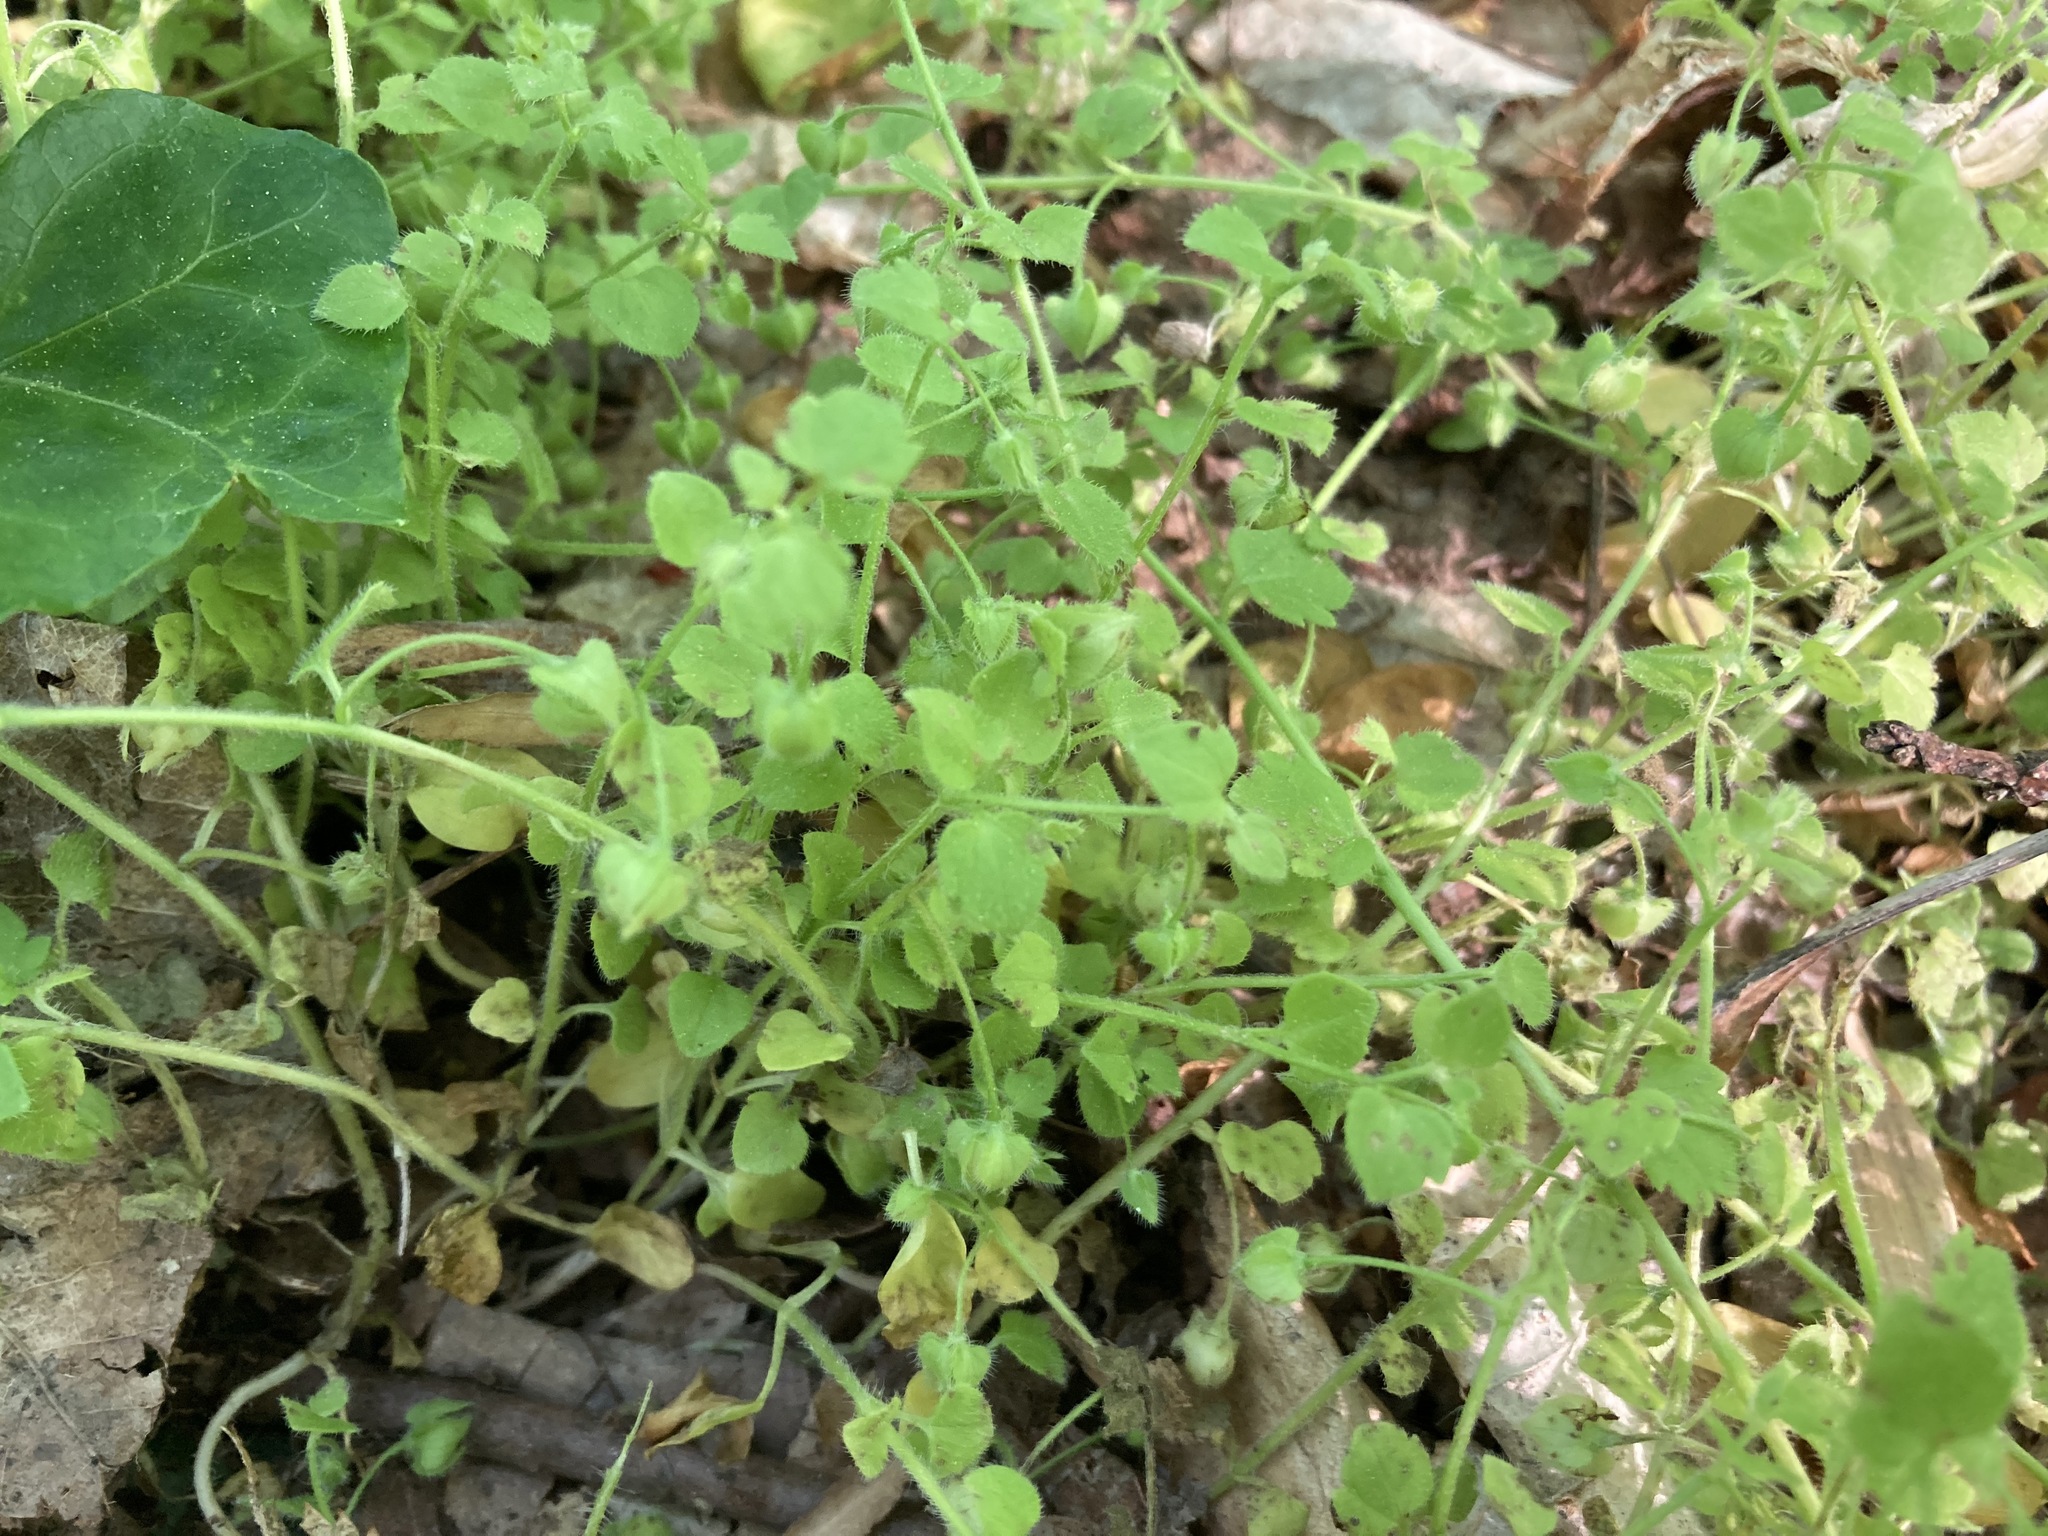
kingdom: Plantae
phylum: Tracheophyta
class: Magnoliopsida
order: Lamiales
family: Plantaginaceae
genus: Veronica
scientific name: Veronica hederifolia
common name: Ivy-leaved speedwell
